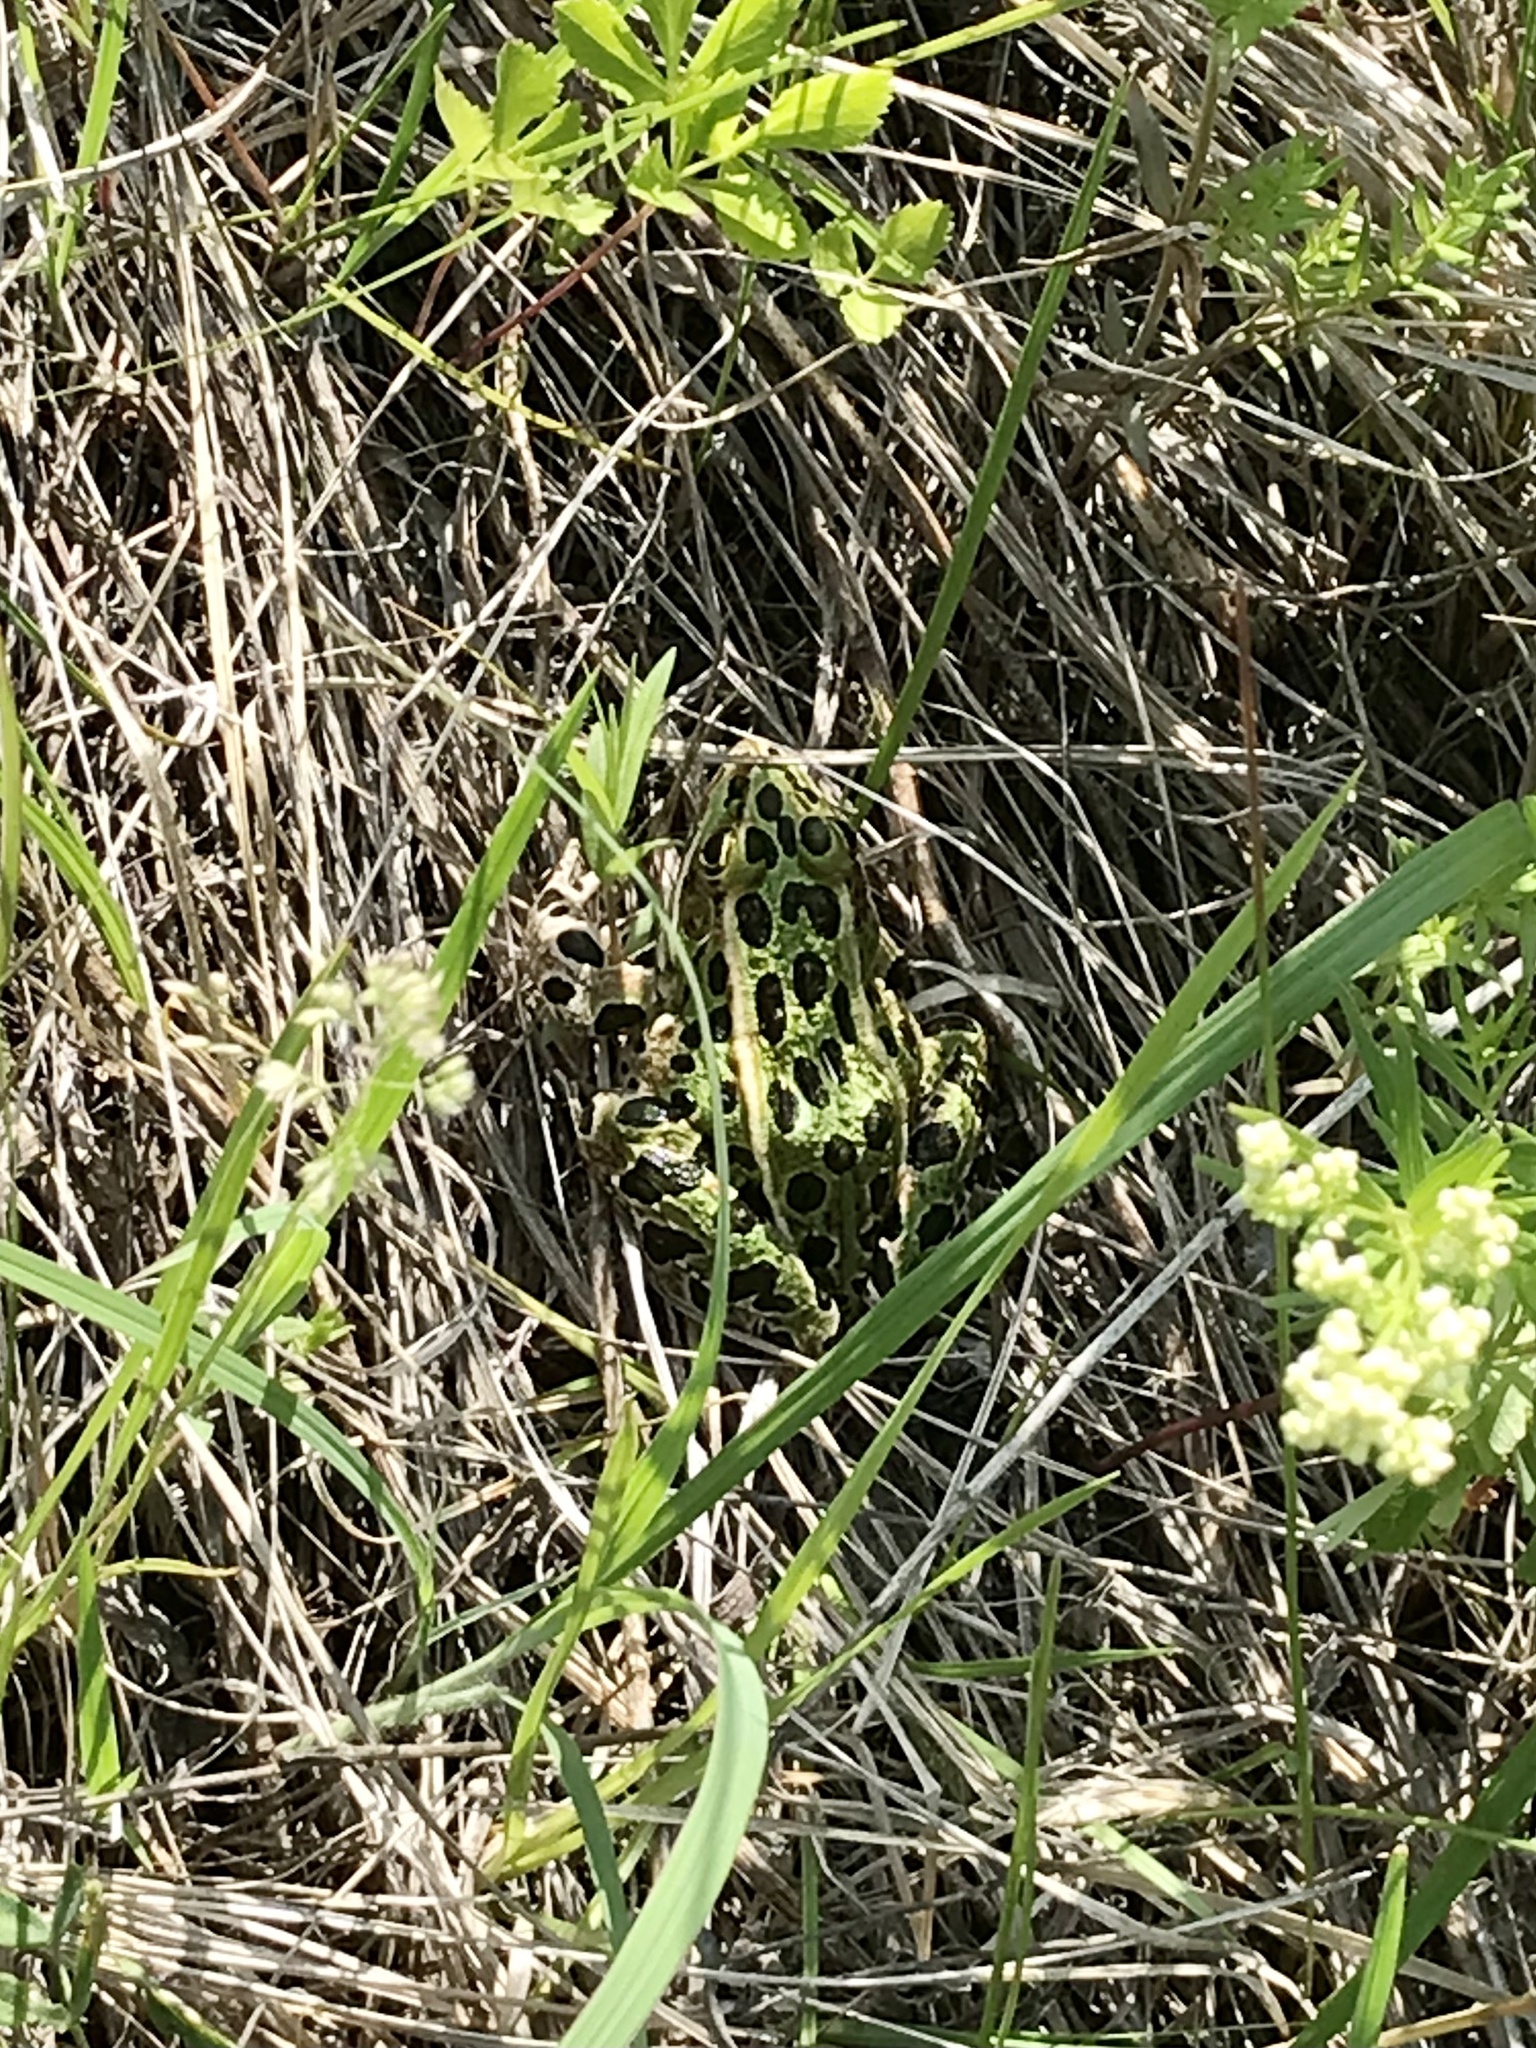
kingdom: Animalia
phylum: Chordata
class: Amphibia
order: Anura
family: Ranidae
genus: Lithobates
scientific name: Lithobates pipiens
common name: Northern leopard frog
